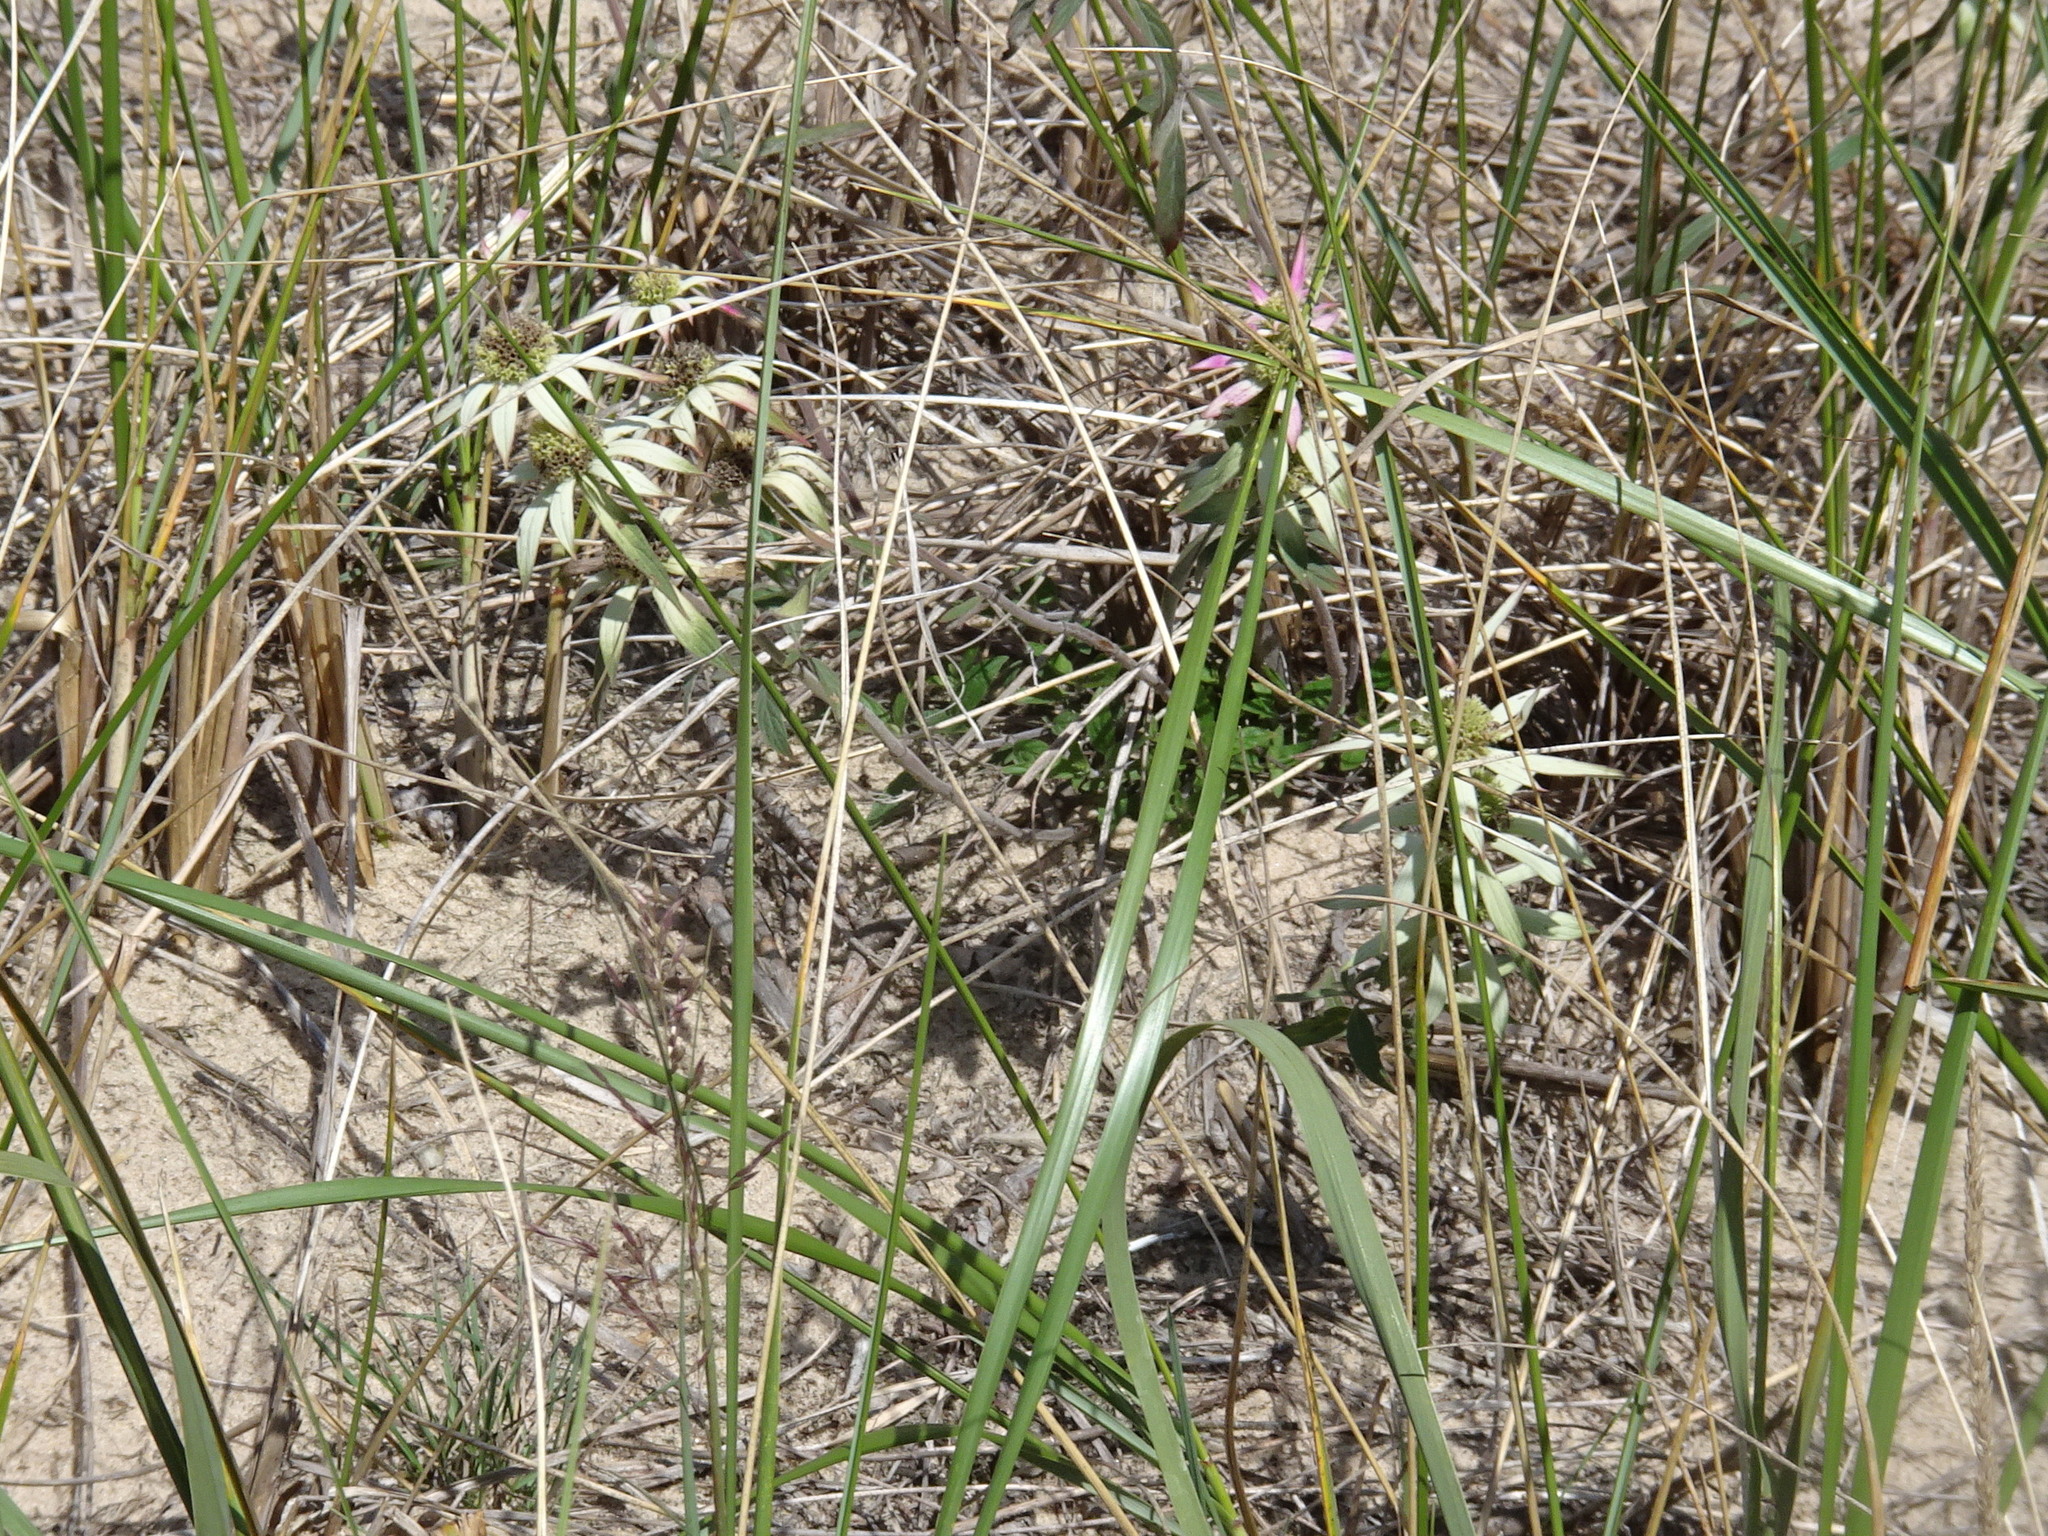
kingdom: Plantae
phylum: Tracheophyta
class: Magnoliopsida
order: Lamiales
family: Lamiaceae
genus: Monarda
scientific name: Monarda punctata
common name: Dotted monarda
